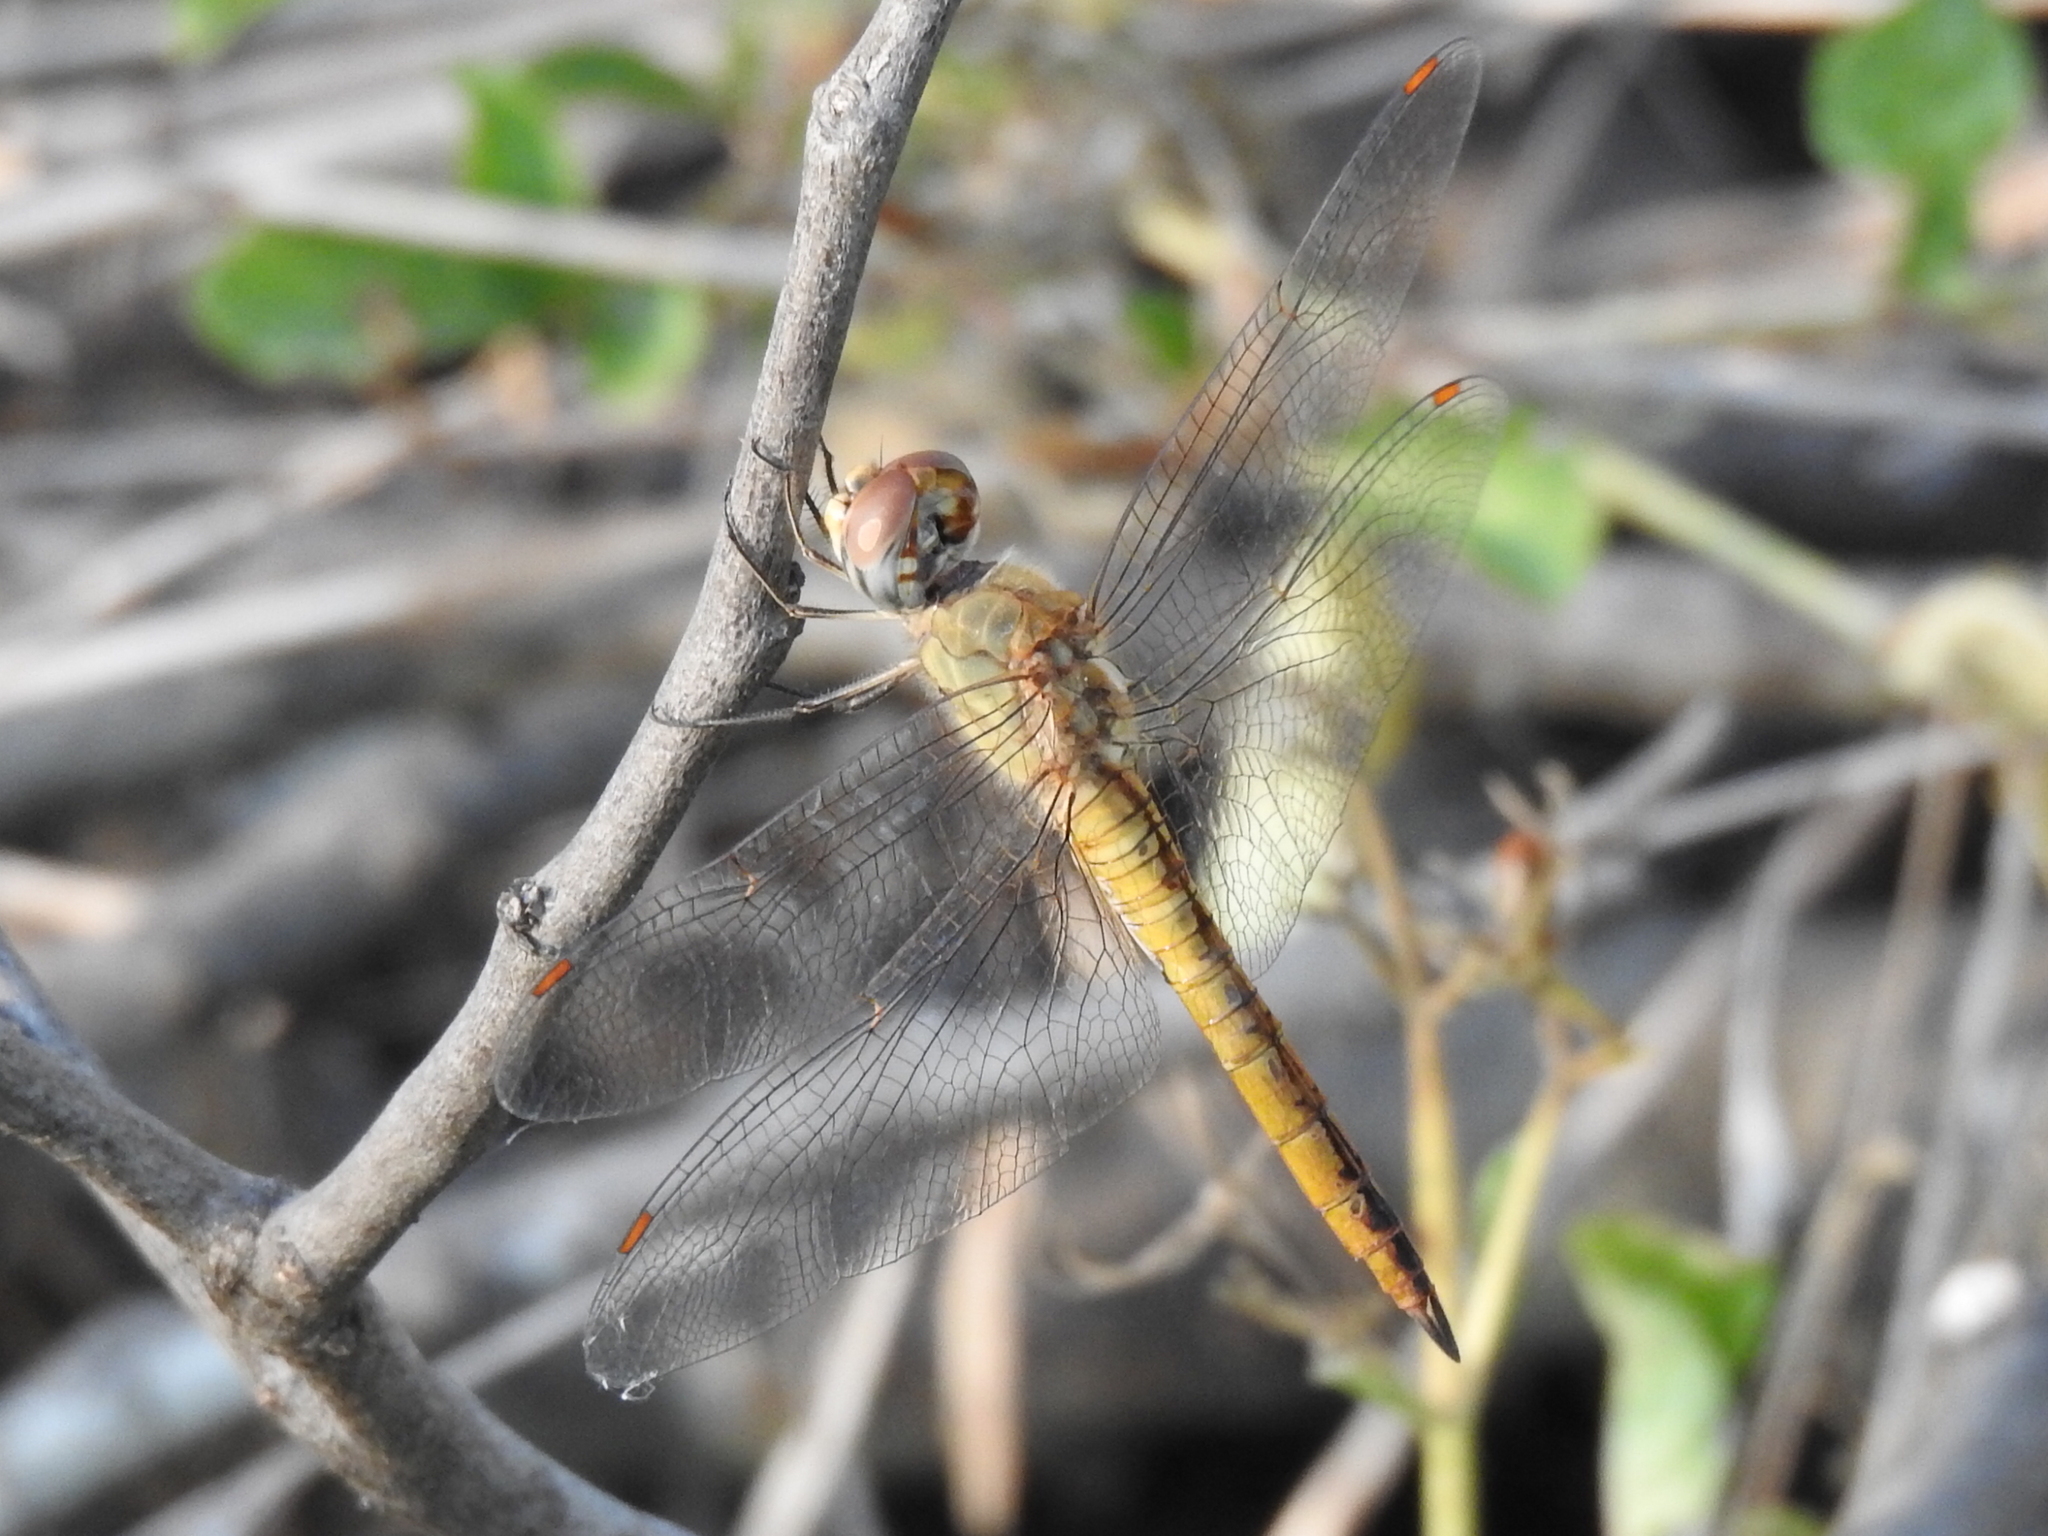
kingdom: Animalia
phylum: Arthropoda
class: Insecta
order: Odonata
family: Libellulidae
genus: Pantala
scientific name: Pantala flavescens
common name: Wandering glider
